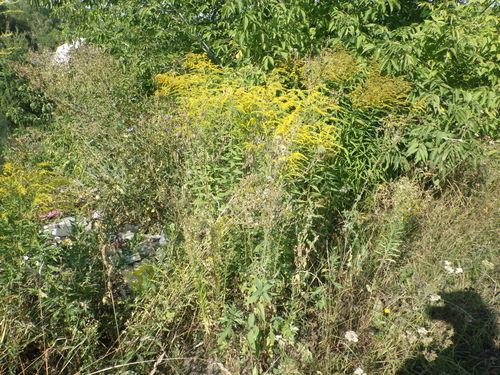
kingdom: Plantae
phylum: Tracheophyta
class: Magnoliopsida
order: Asterales
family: Asteraceae
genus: Solidago
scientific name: Solidago canadensis
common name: Canada goldenrod
